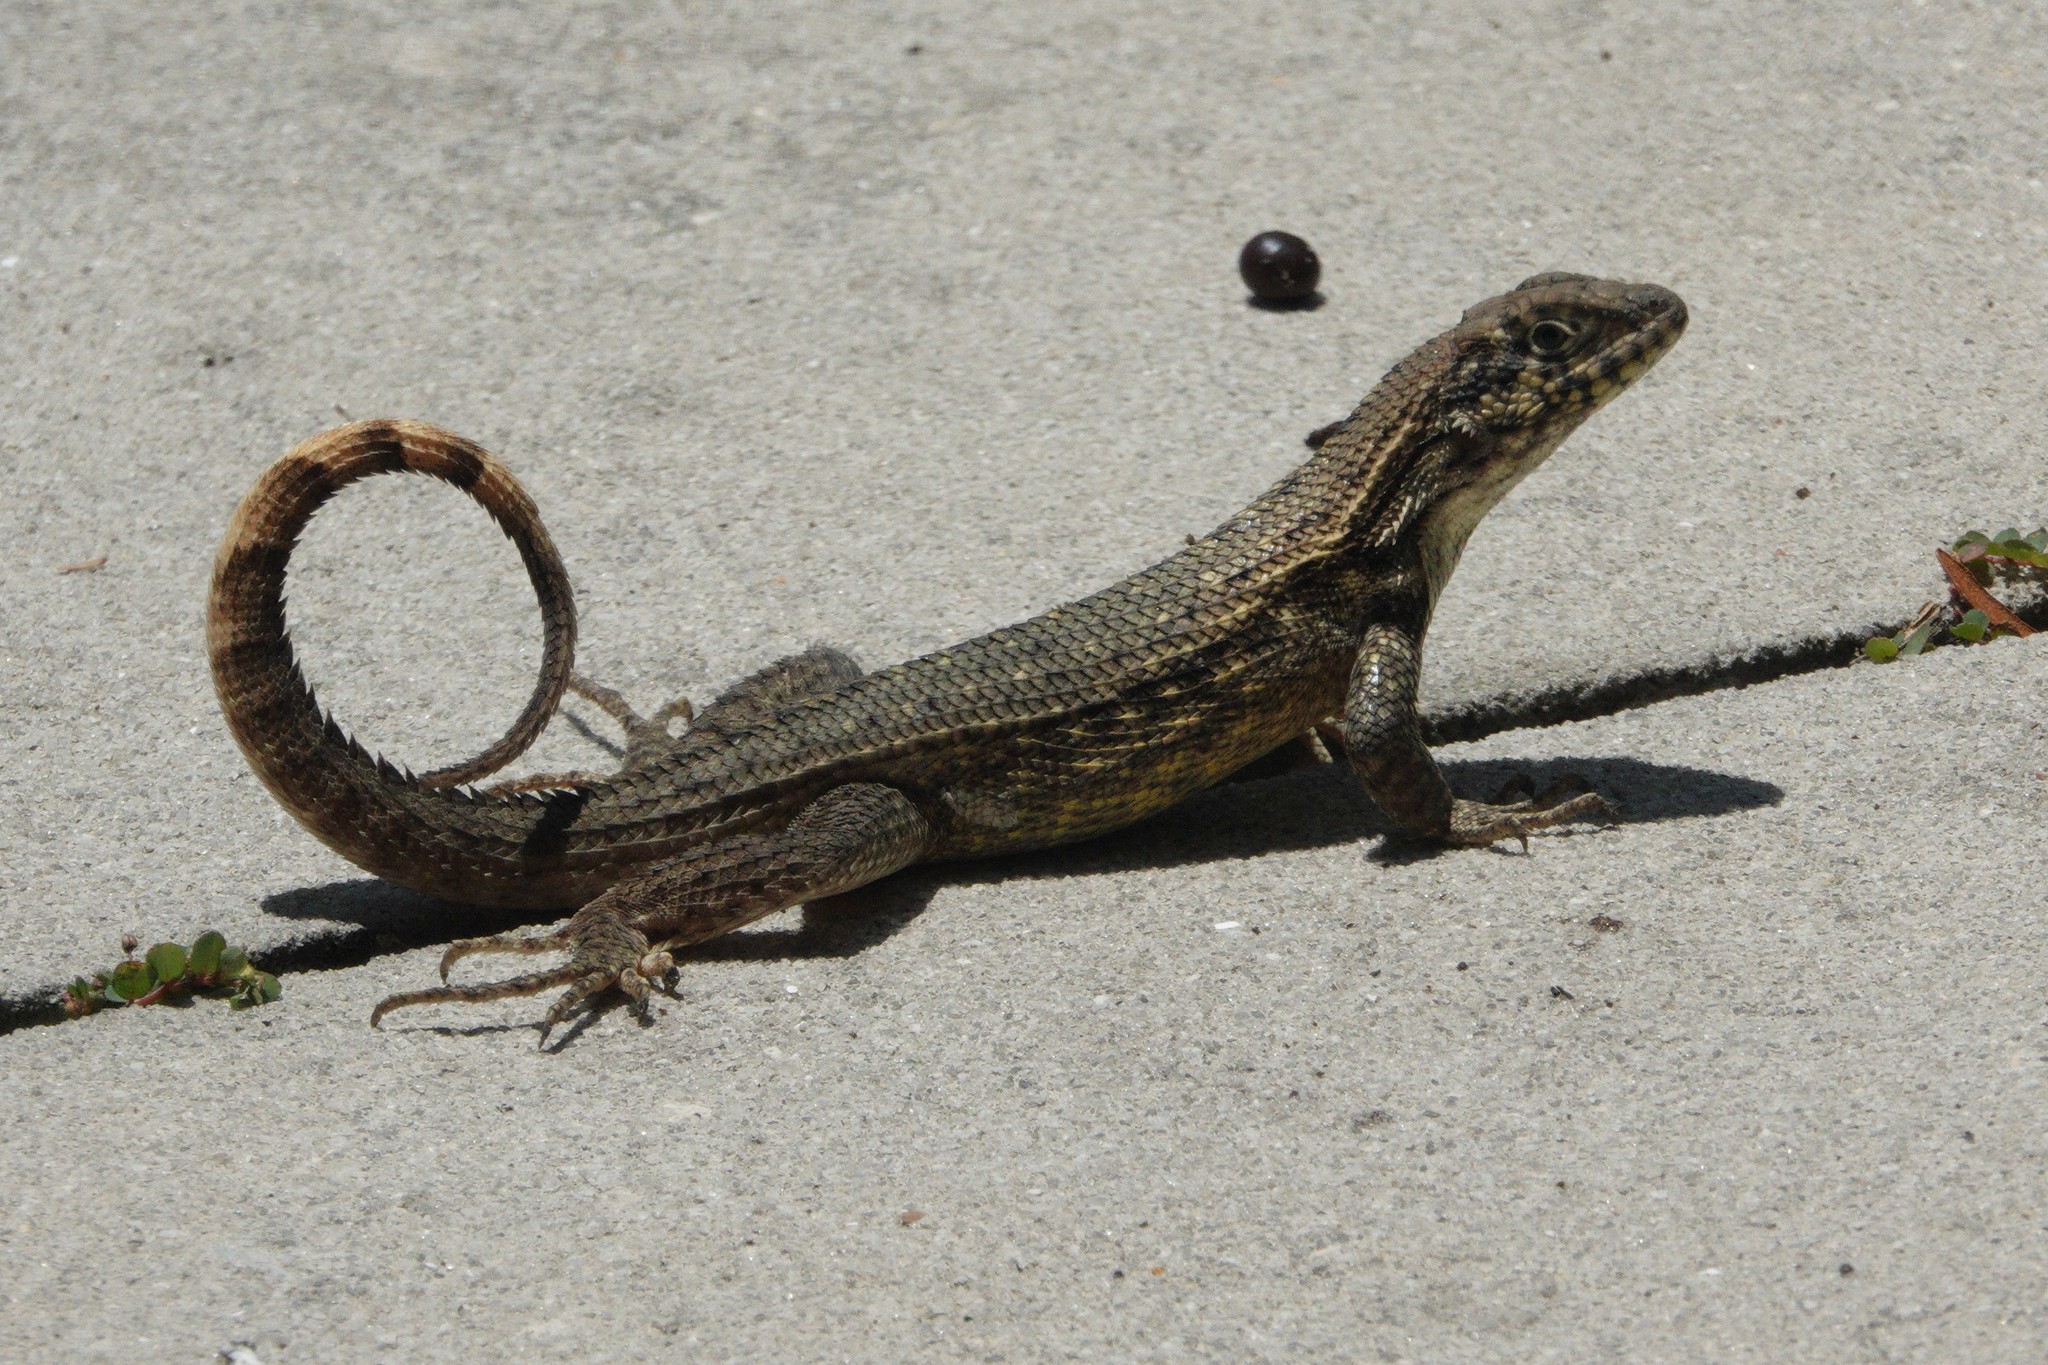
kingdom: Animalia
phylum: Chordata
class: Squamata
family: Leiocephalidae
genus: Leiocephalus
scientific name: Leiocephalus carinatus
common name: Northern curly-tailed lizard
